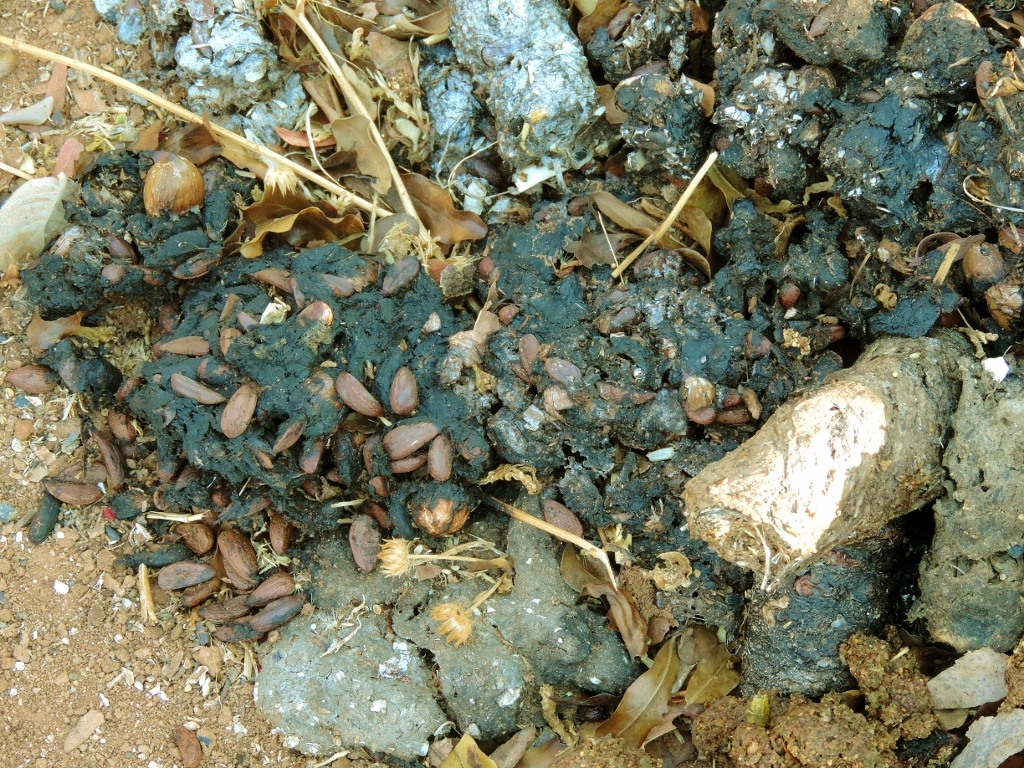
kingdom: Animalia
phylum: Chordata
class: Mammalia
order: Carnivora
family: Viverridae
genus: Civettictis
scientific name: Civettictis civetta
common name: African civet
